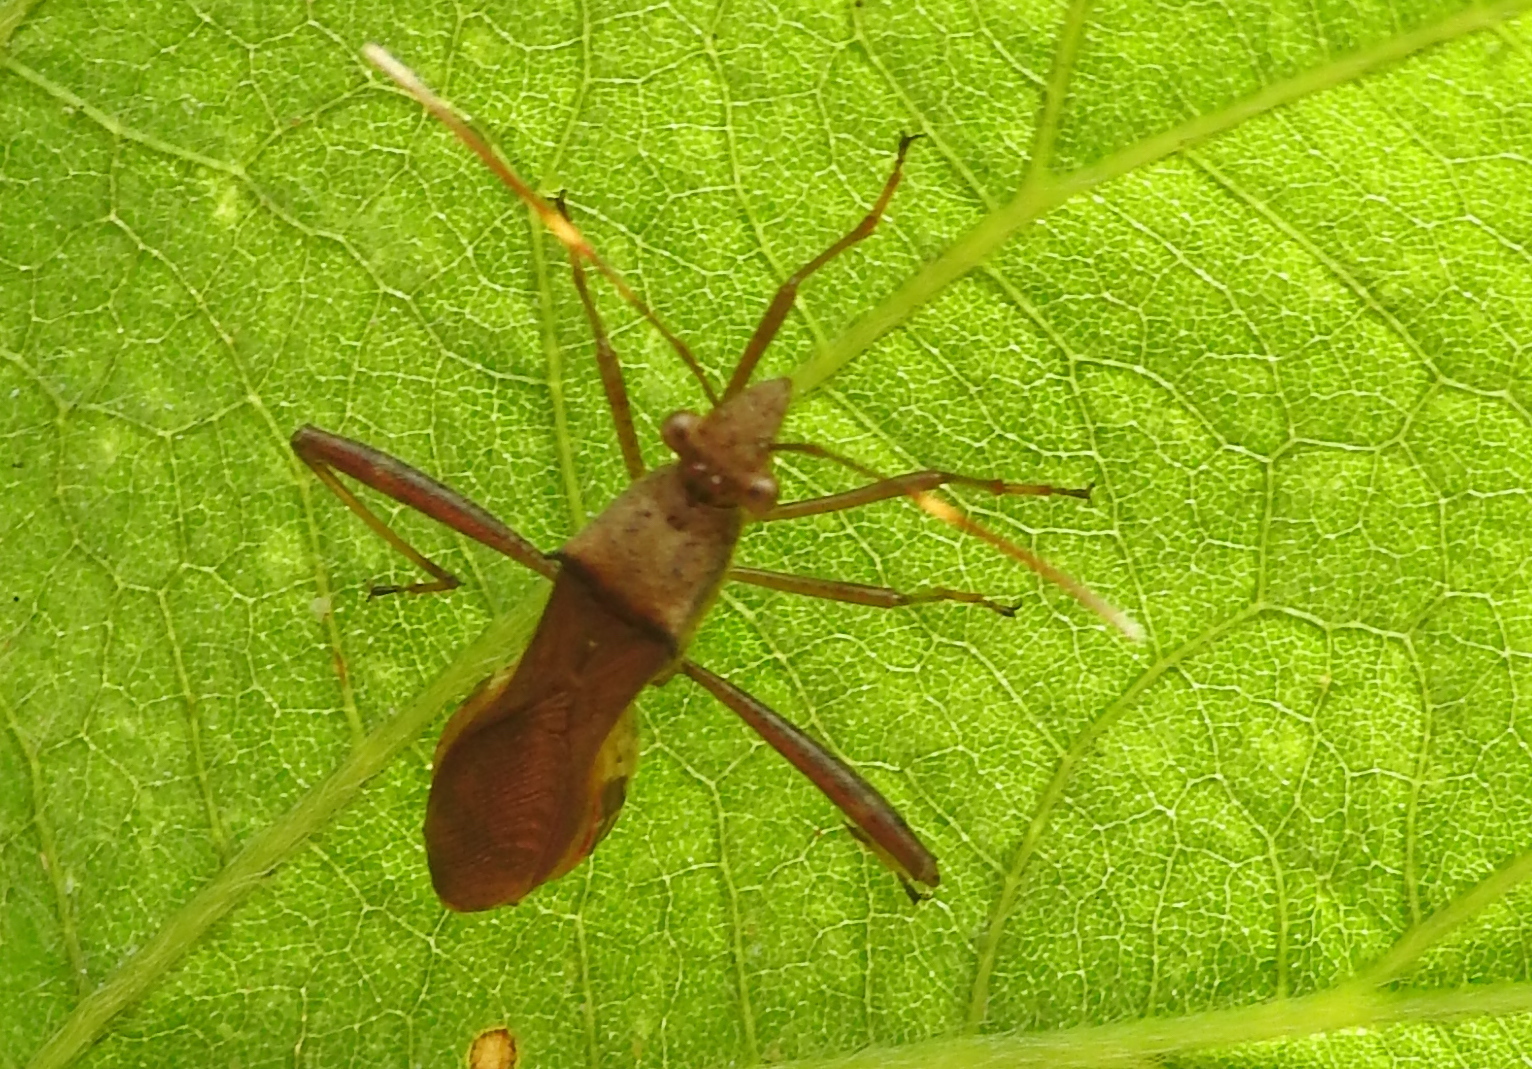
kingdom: Animalia
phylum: Arthropoda
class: Insecta
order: Hemiptera
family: Alydidae
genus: Riptortus
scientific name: Riptortus pedestris
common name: Bean bug
